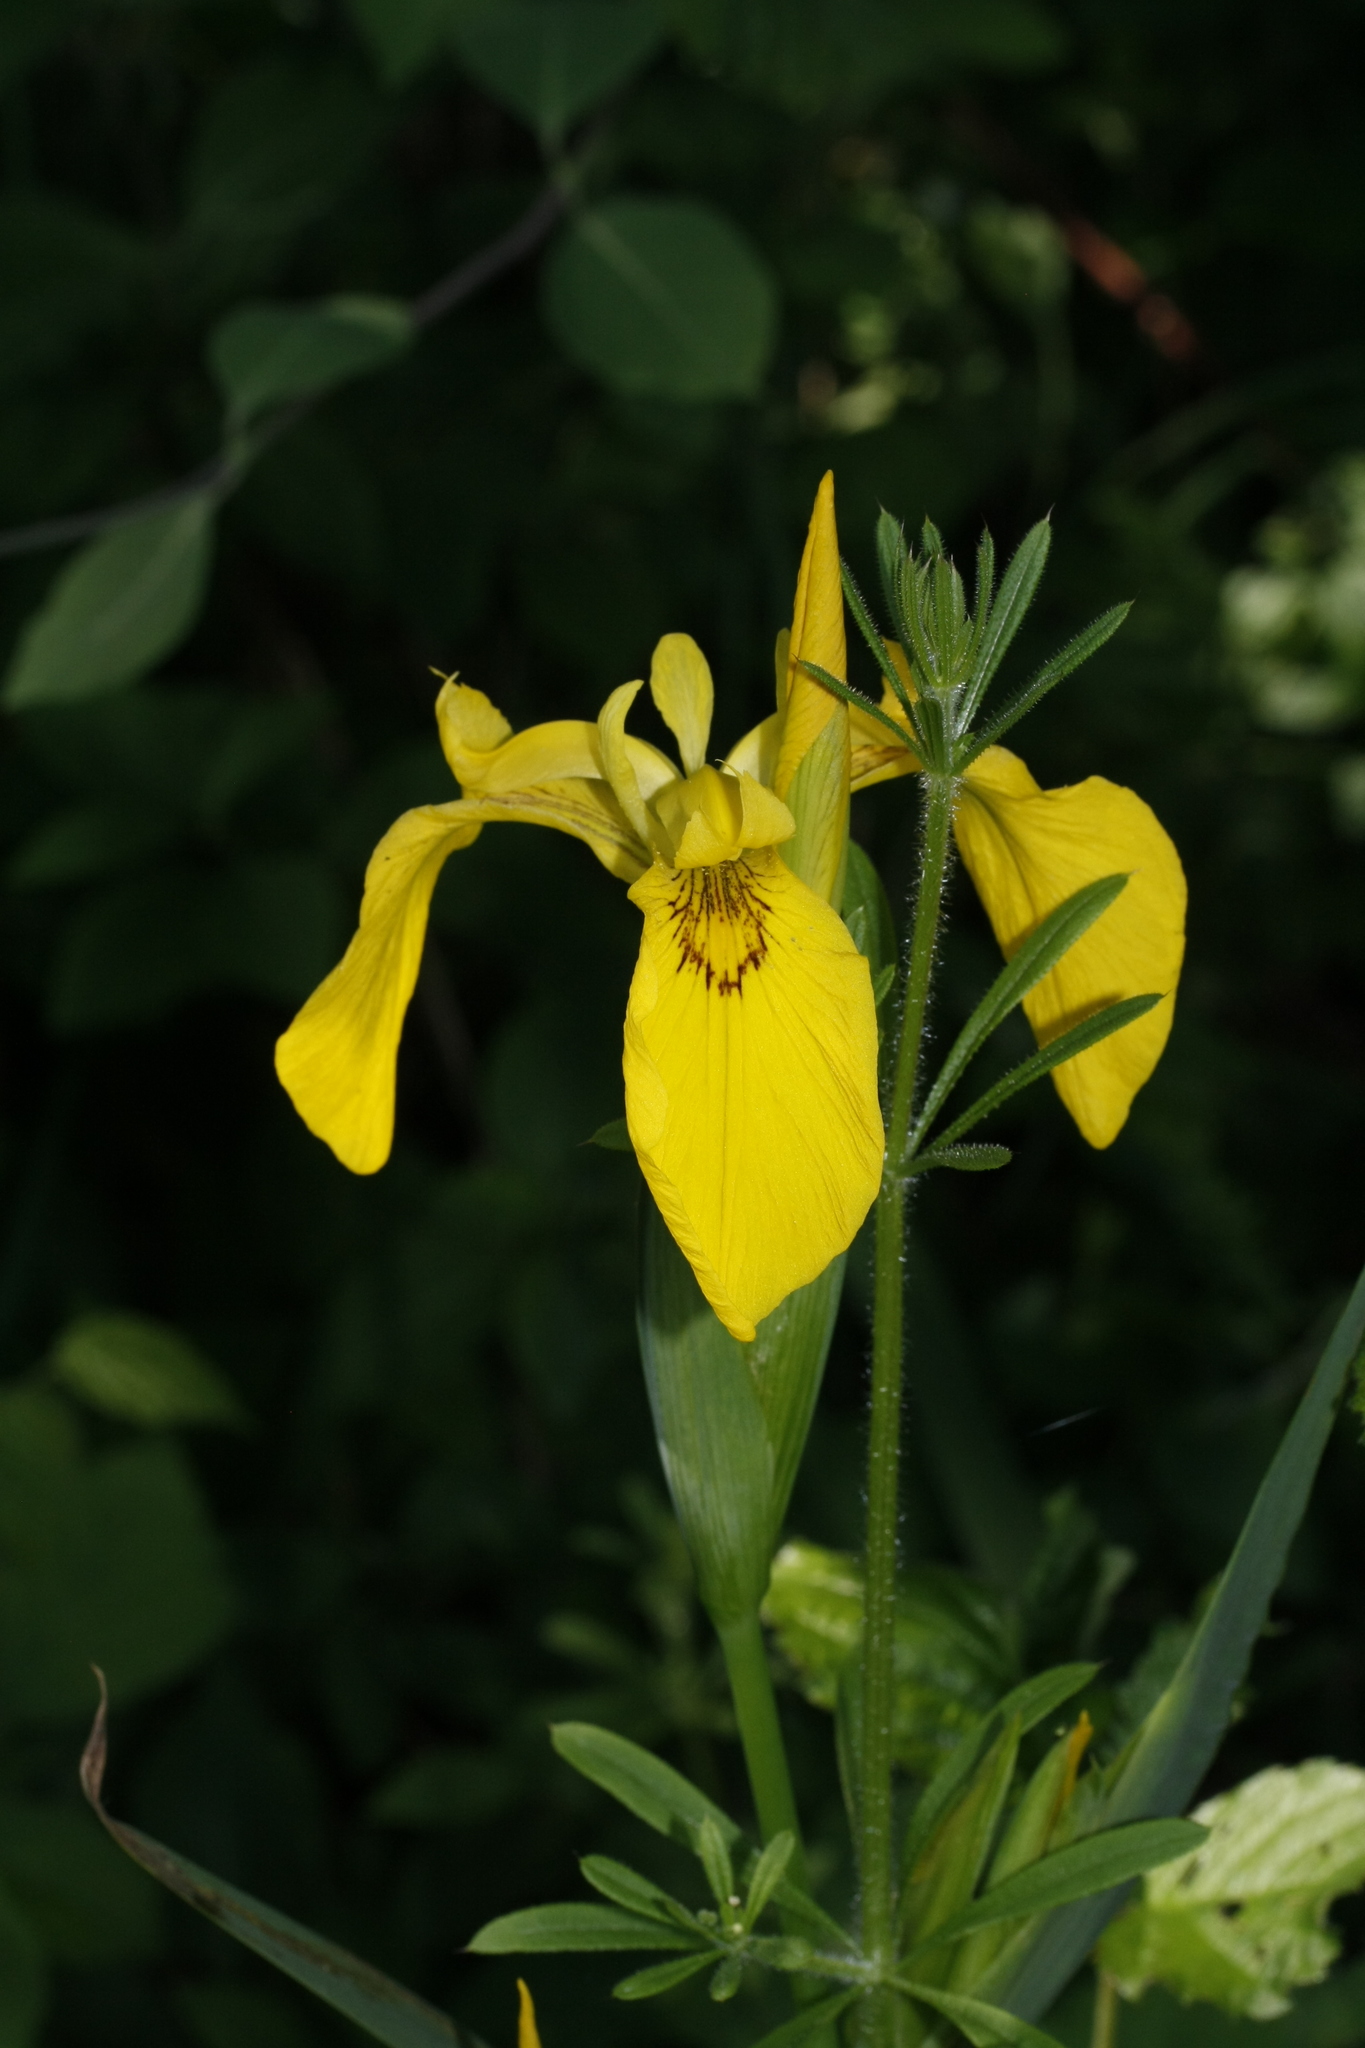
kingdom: Plantae
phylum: Tracheophyta
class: Liliopsida
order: Asparagales
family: Iridaceae
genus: Iris
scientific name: Iris pseudacorus
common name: Yellow flag
